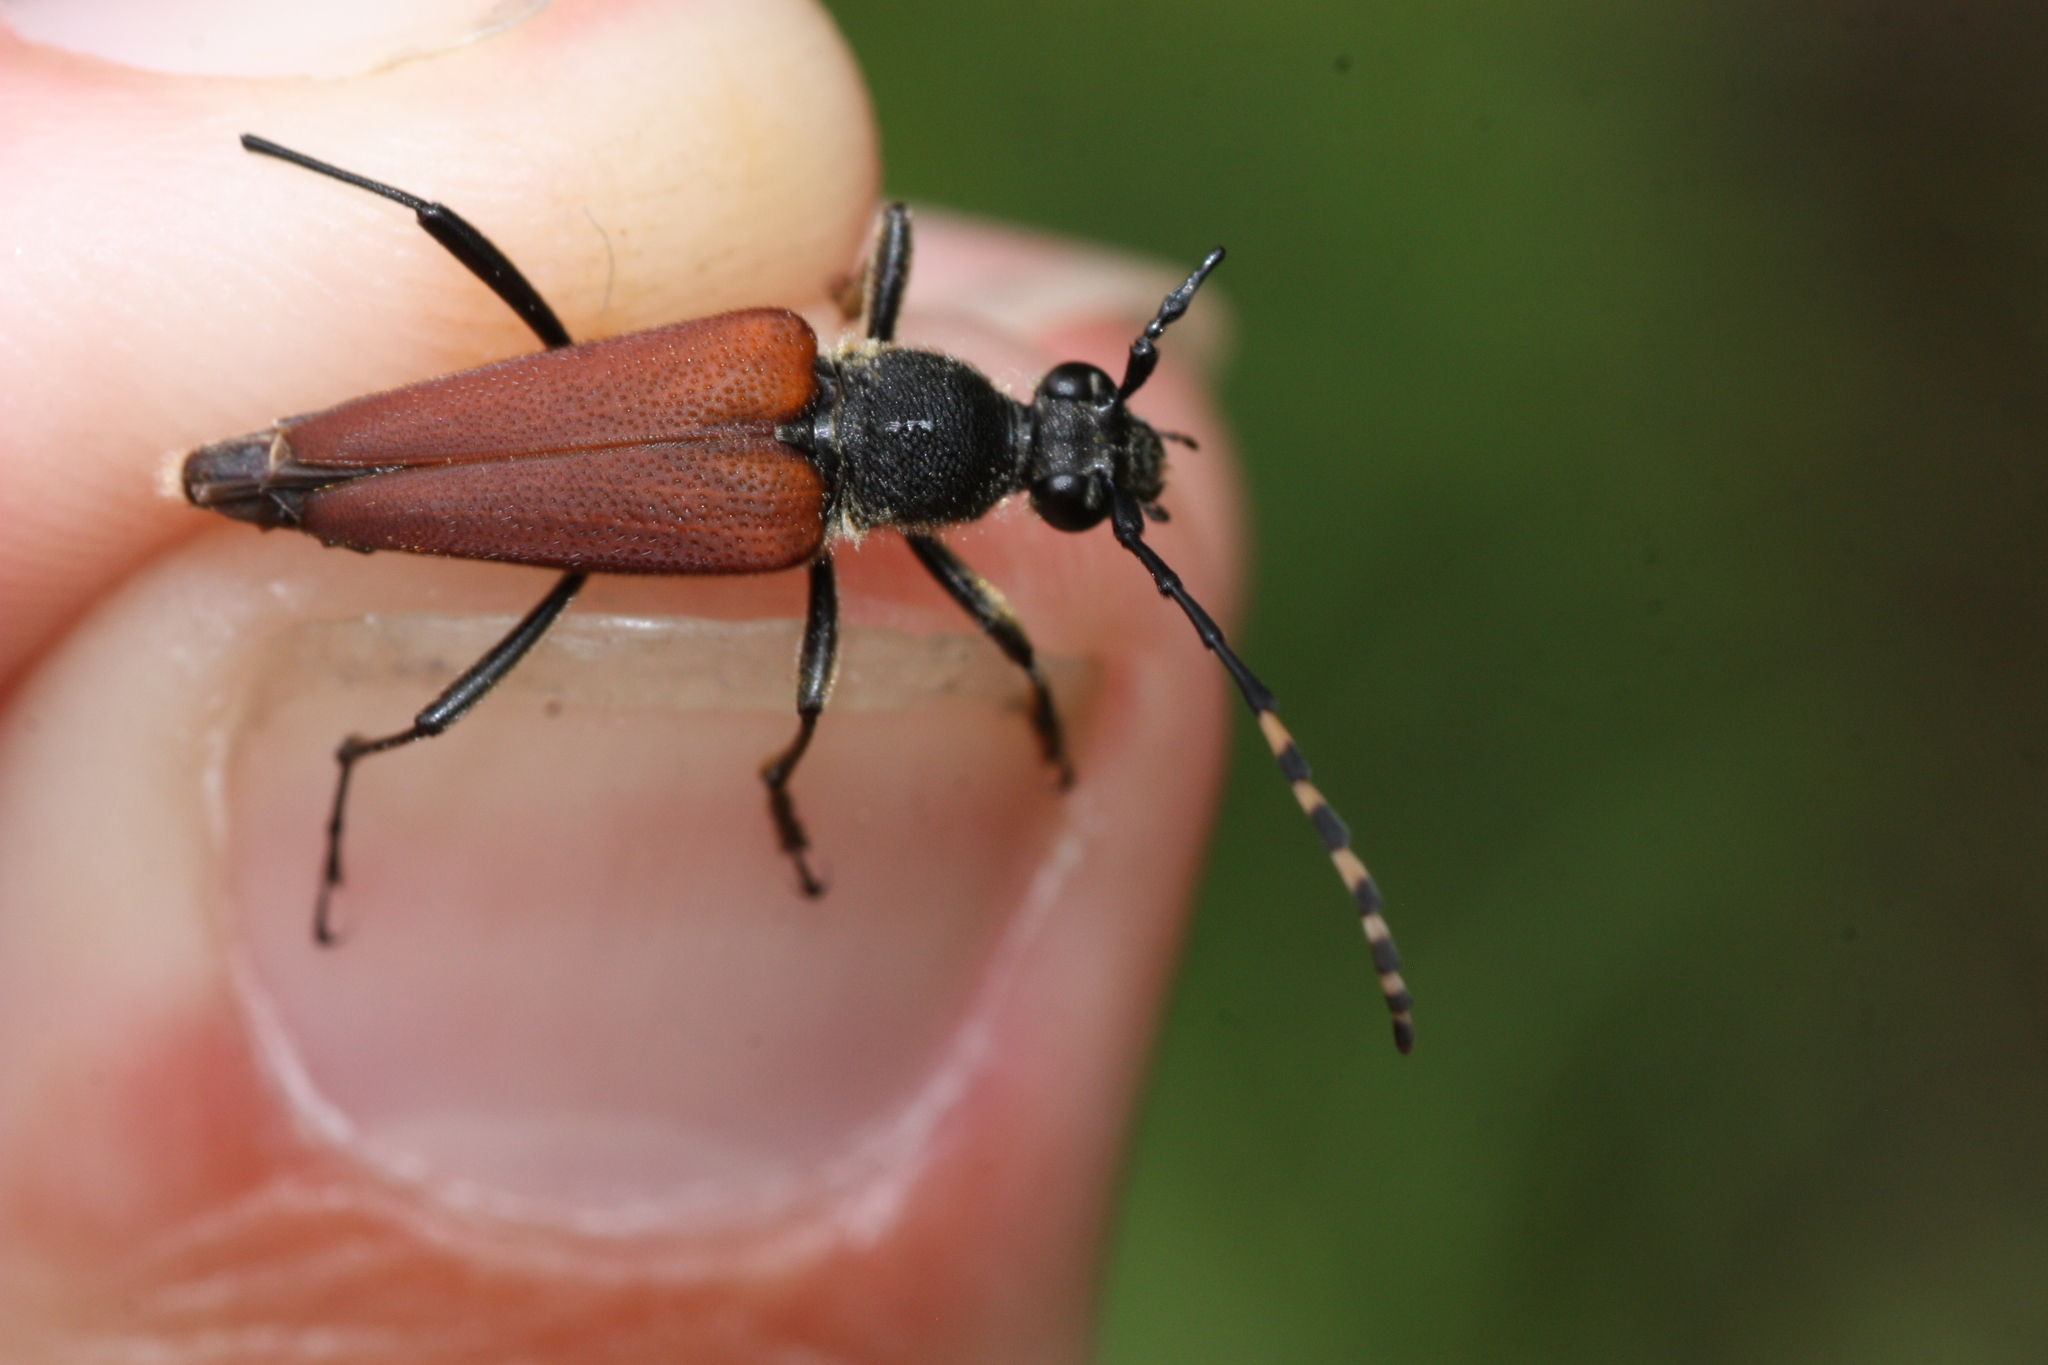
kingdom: Animalia
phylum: Arthropoda
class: Insecta
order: Coleoptera
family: Cerambycidae
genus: Brachyleptura
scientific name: Brachyleptura rubrica
